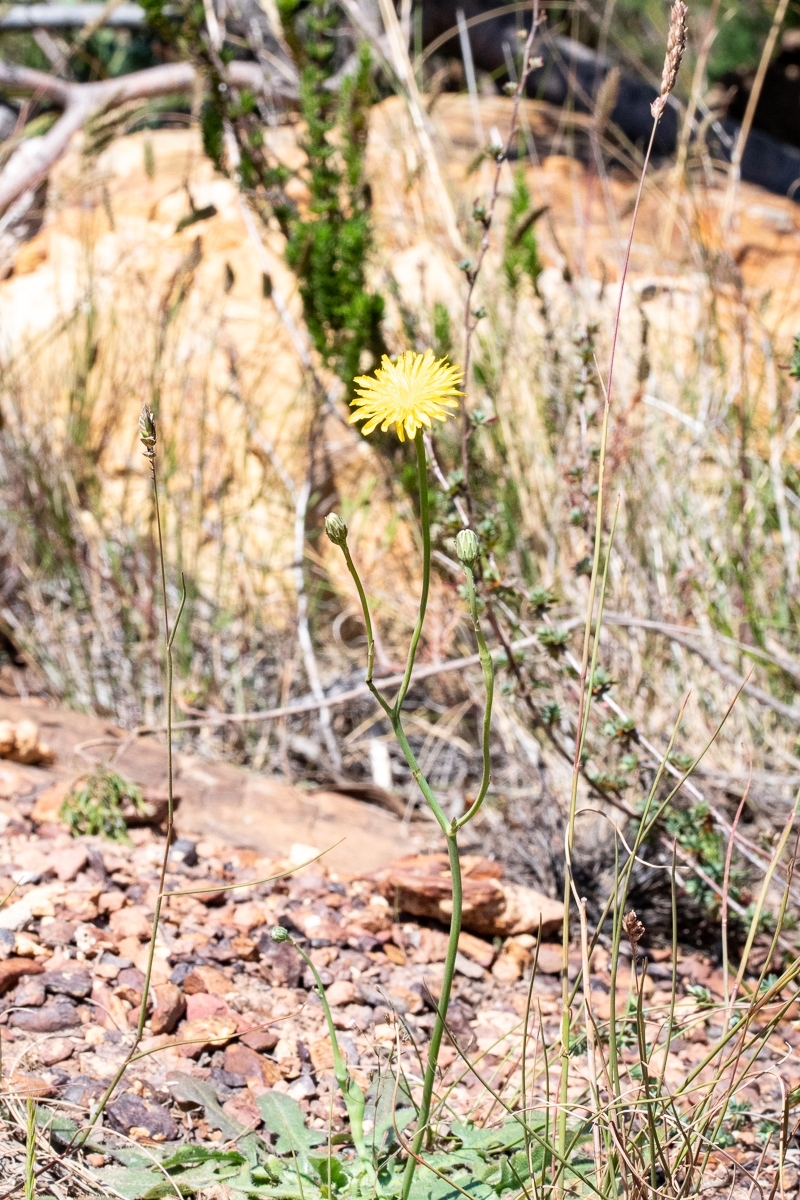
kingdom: Plantae
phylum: Tracheophyta
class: Magnoliopsida
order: Asterales
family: Asteraceae
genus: Hypochaeris
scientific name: Hypochaeris radicata
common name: Flatweed
